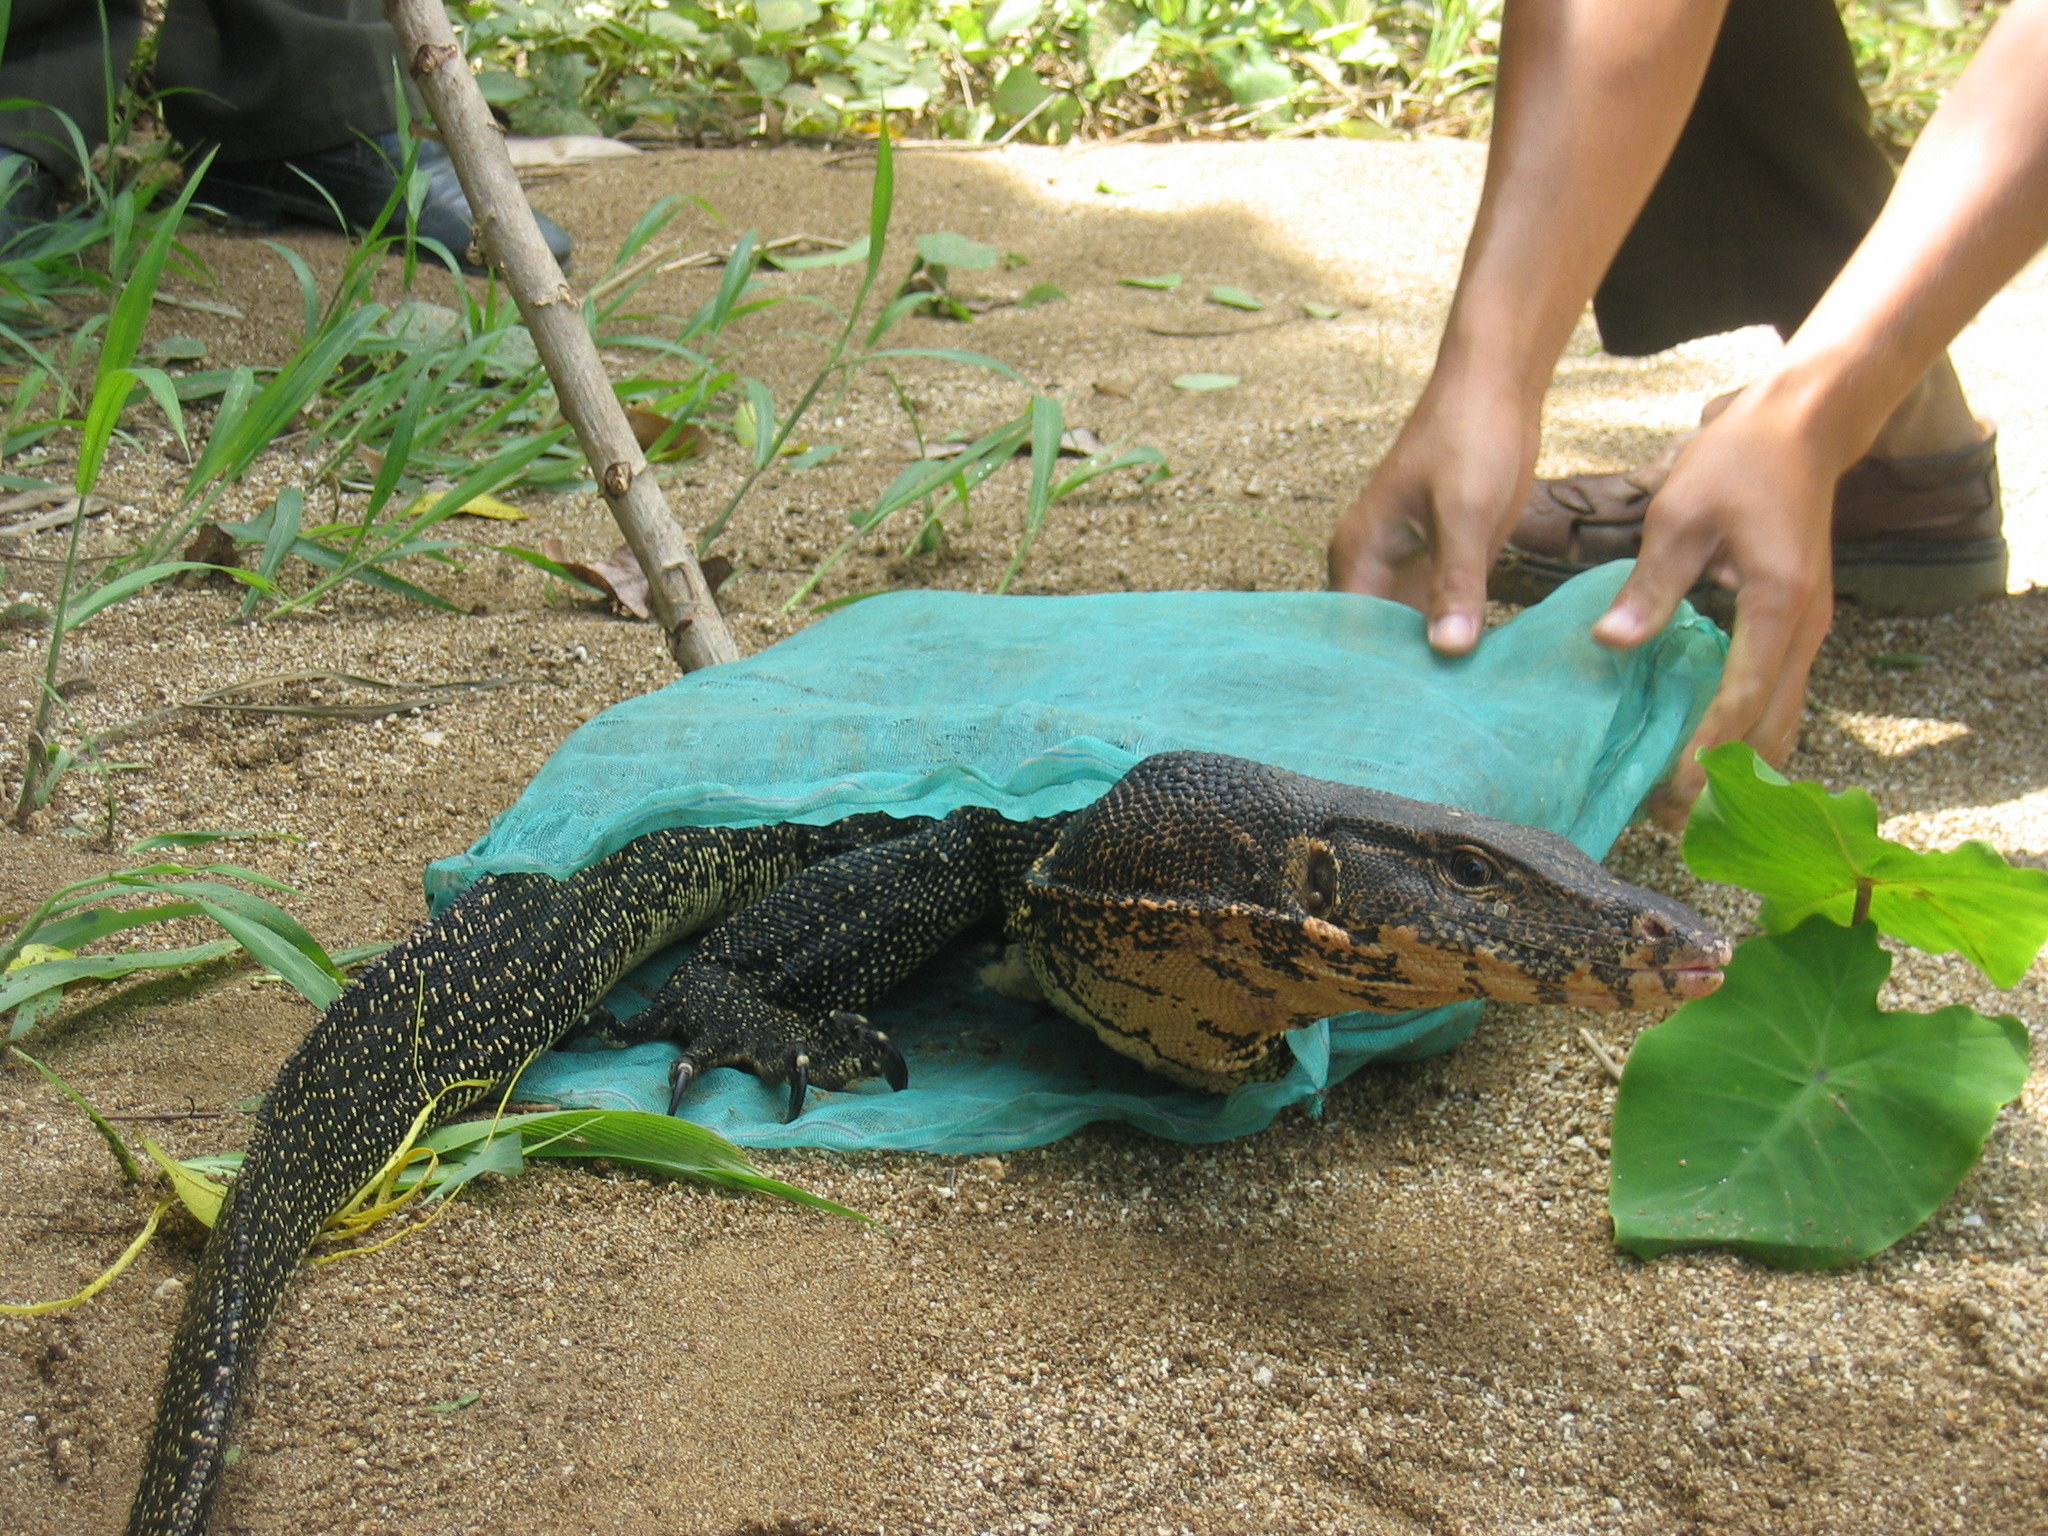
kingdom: Animalia
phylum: Chordata
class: Squamata
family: Varanidae
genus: Varanus
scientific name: Varanus salvator
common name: Common water monitor
